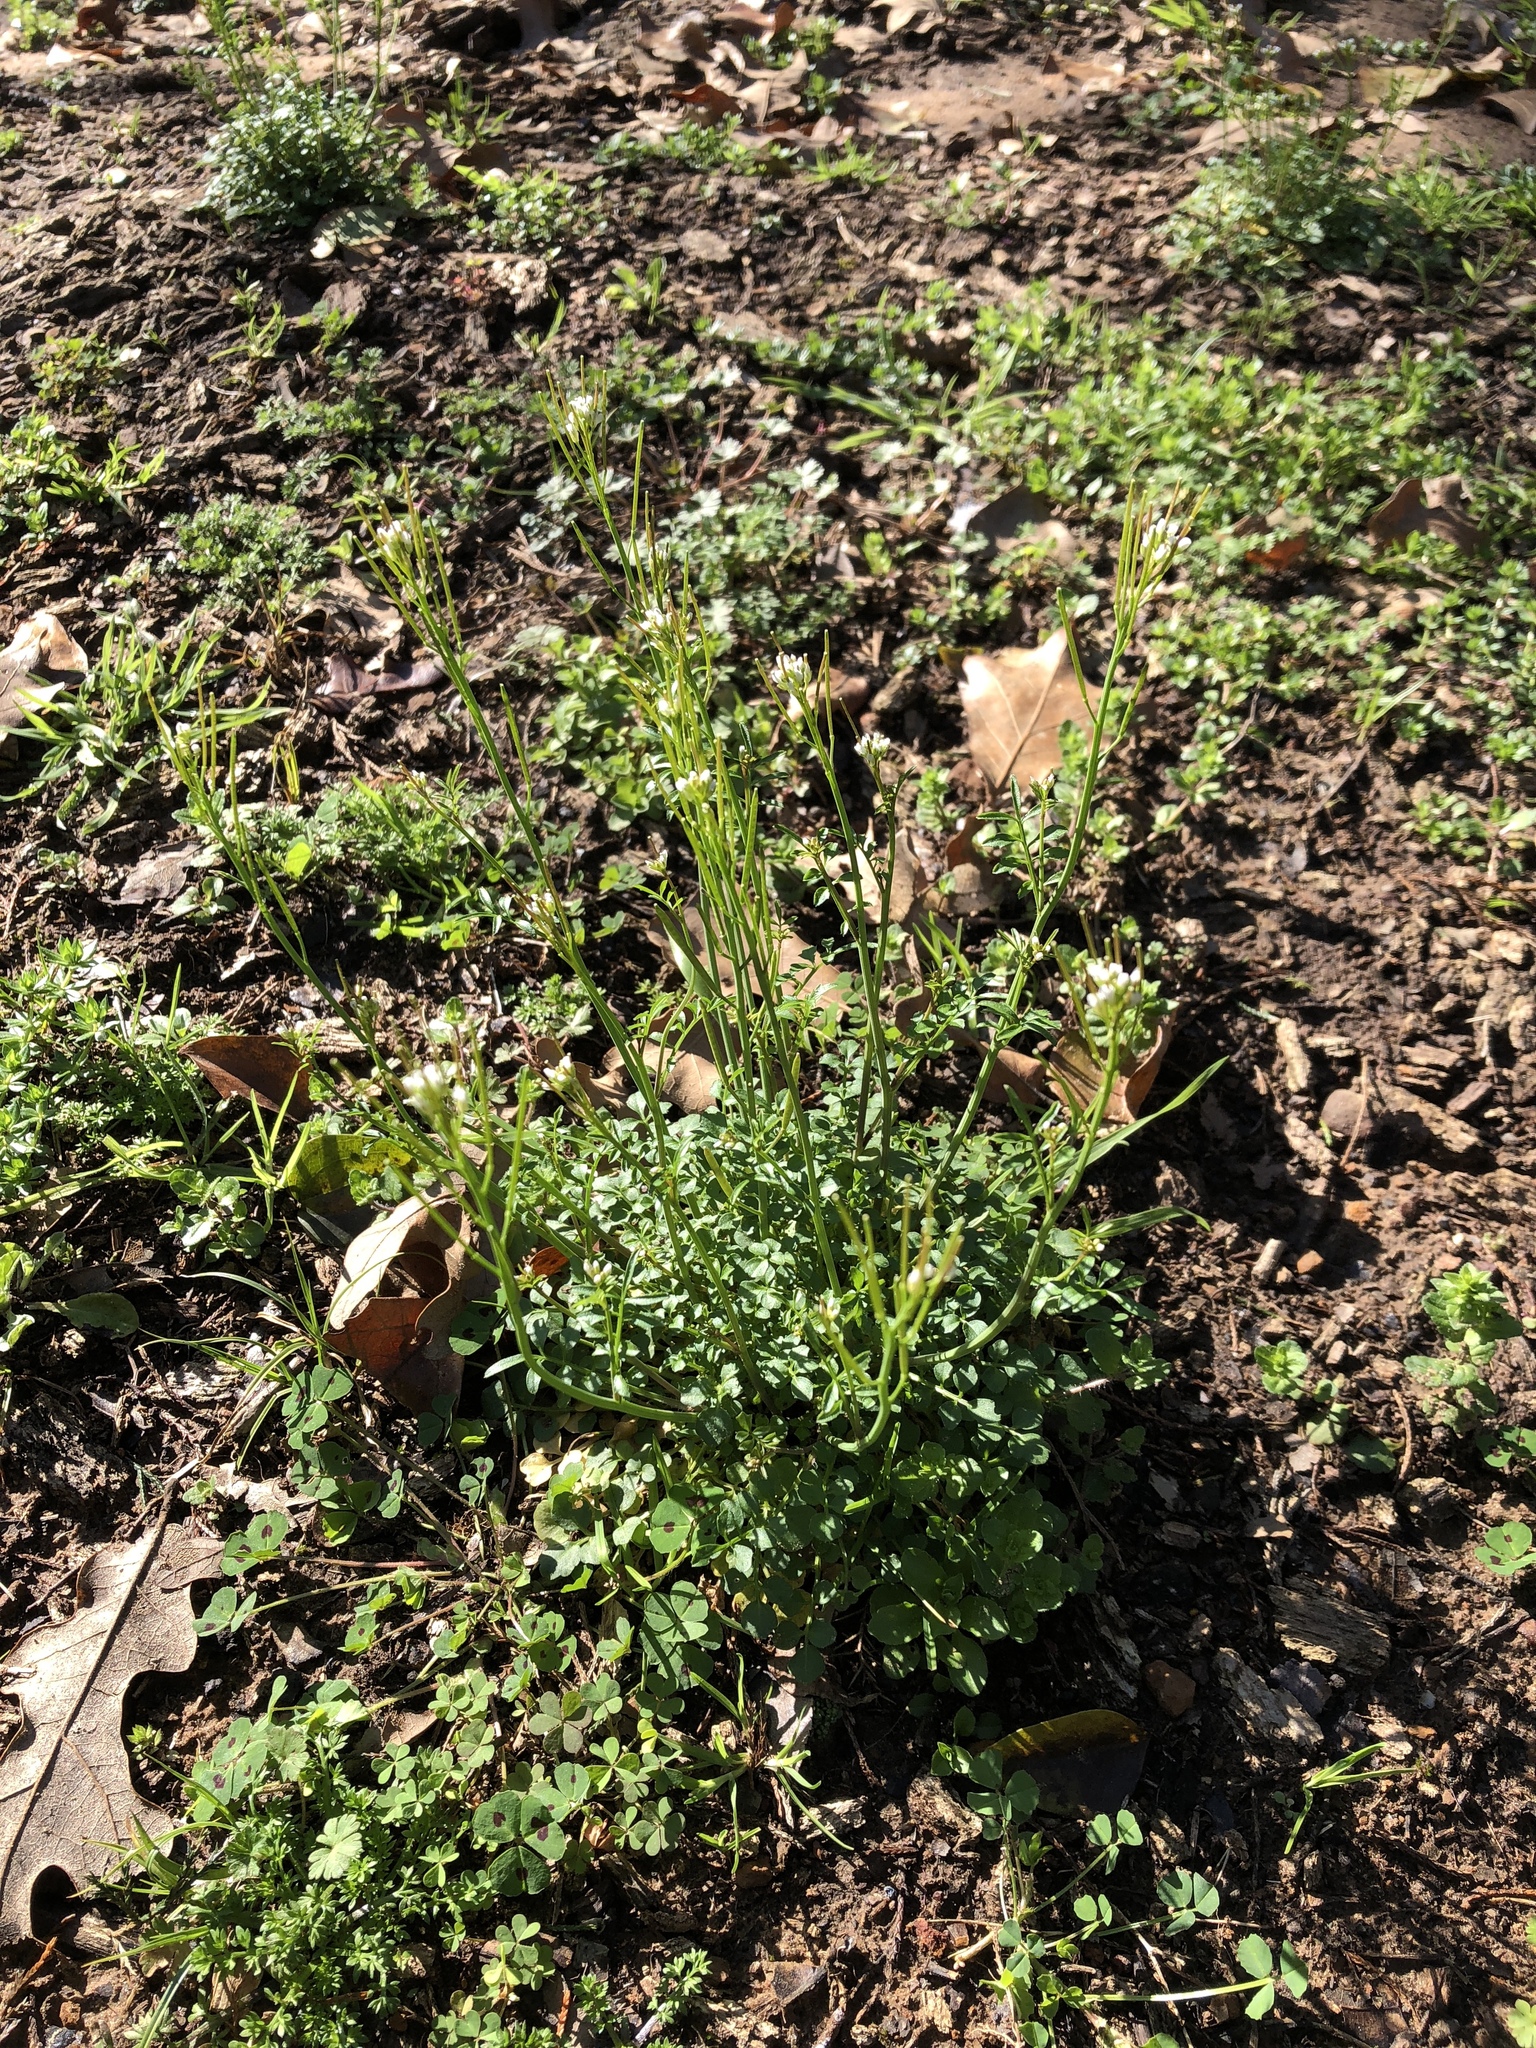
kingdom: Plantae
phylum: Tracheophyta
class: Magnoliopsida
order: Brassicales
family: Brassicaceae
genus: Cardamine
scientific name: Cardamine hirsuta
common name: Hairy bittercress
